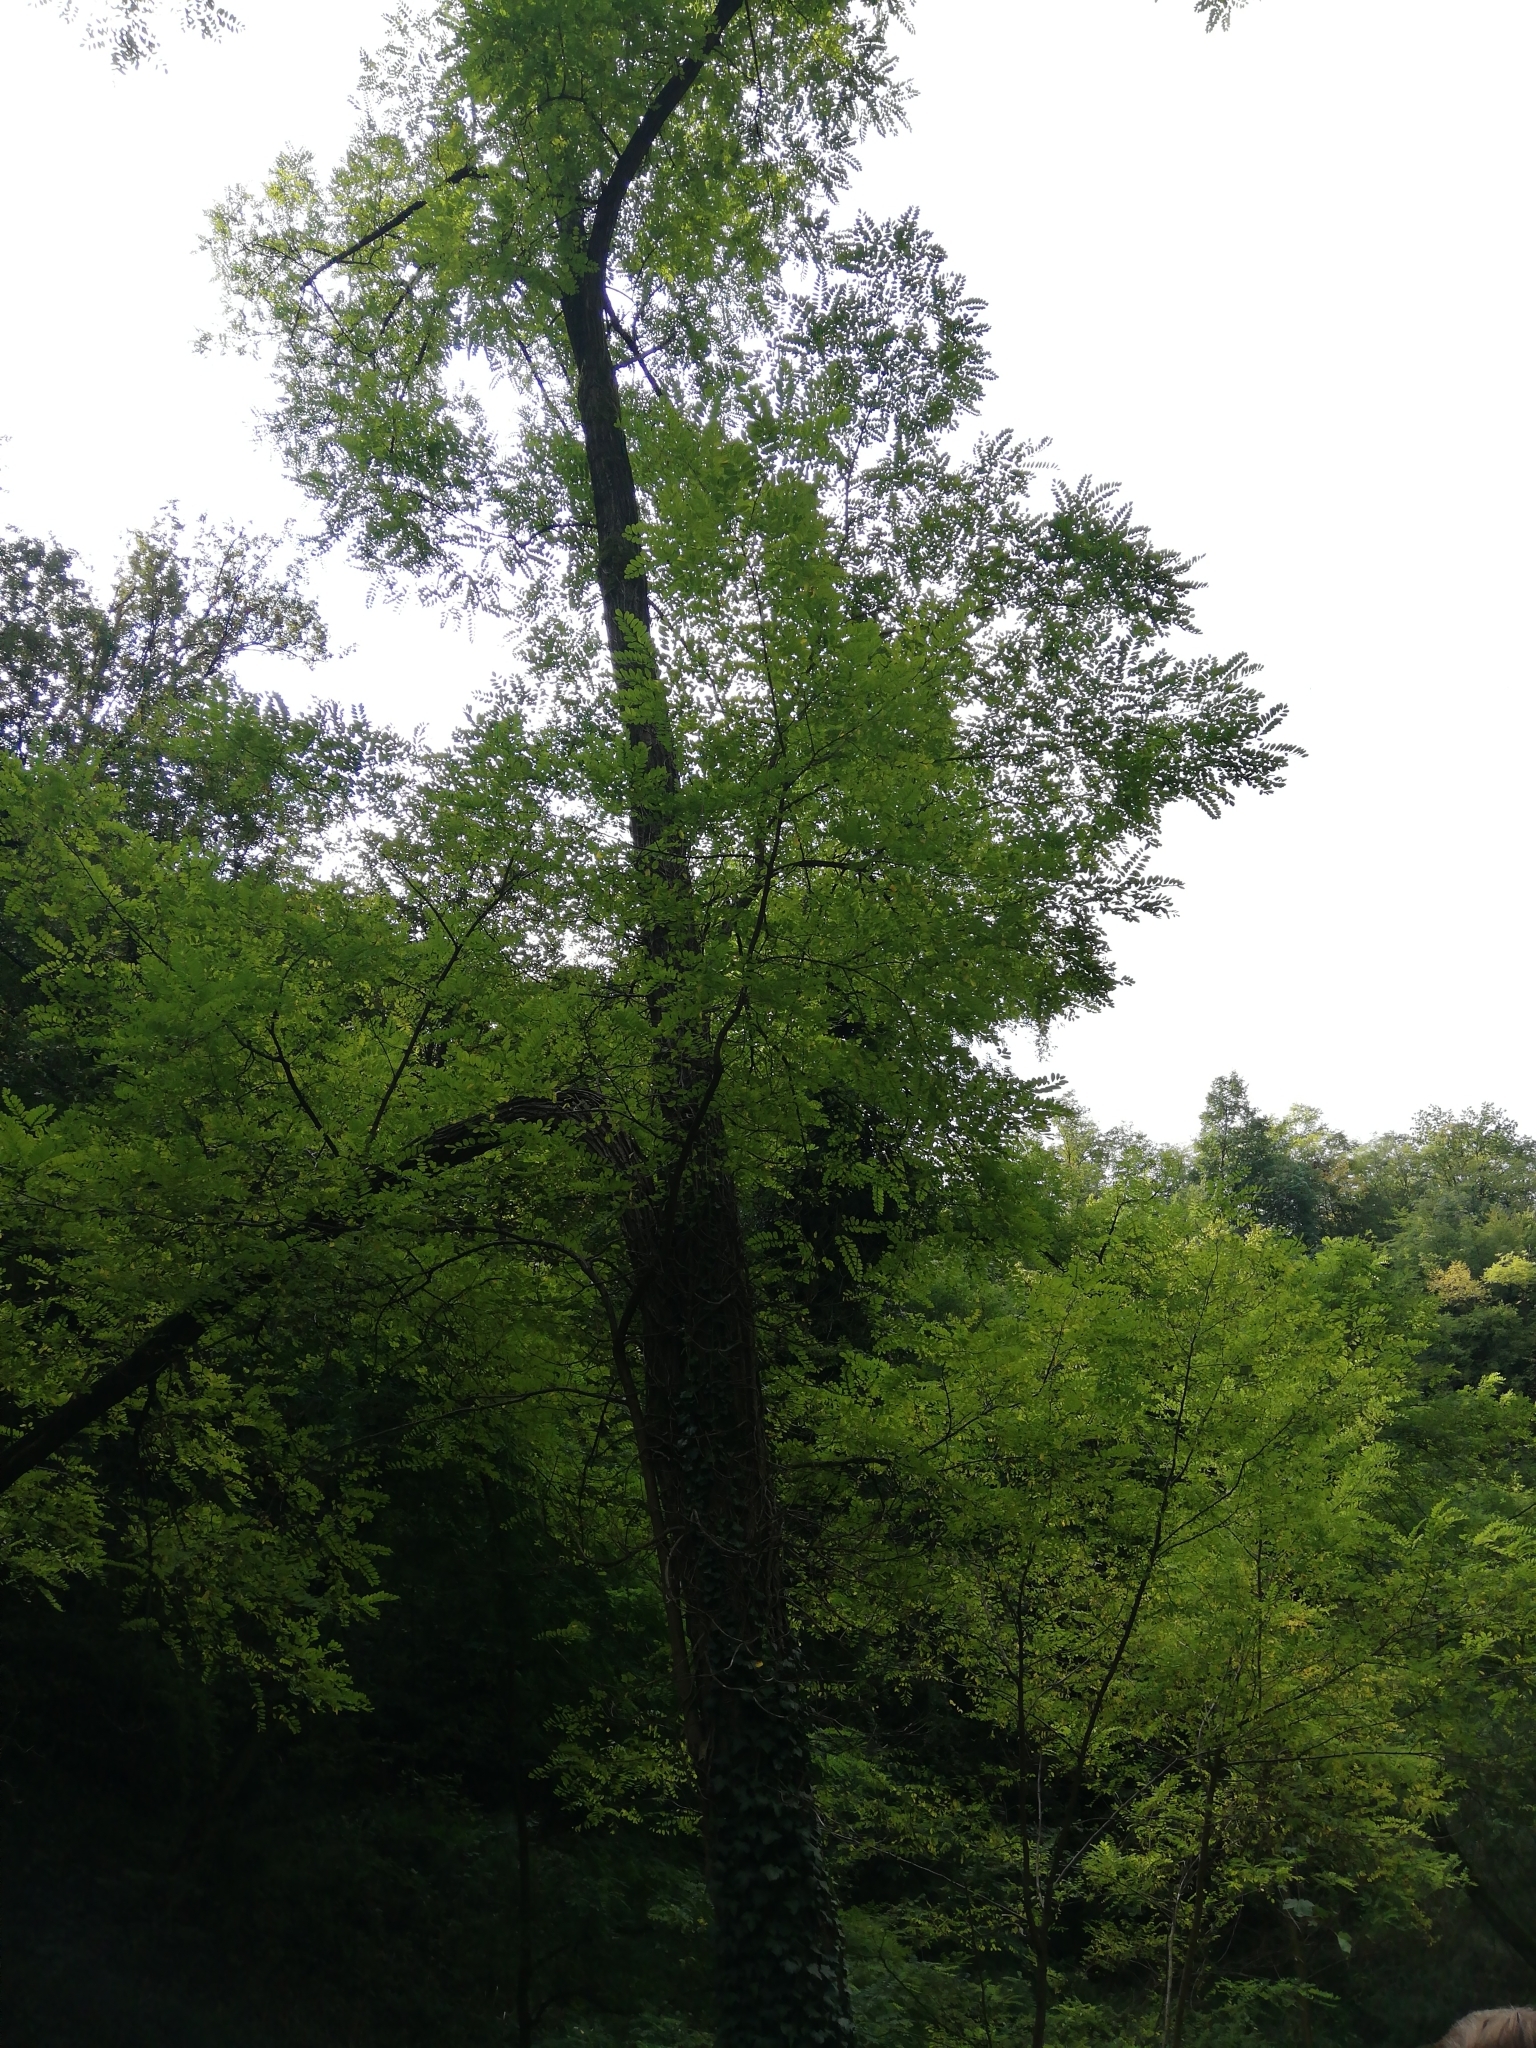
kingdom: Plantae
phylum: Tracheophyta
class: Magnoliopsida
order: Fabales
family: Fabaceae
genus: Robinia
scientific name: Robinia pseudoacacia
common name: Black locust
